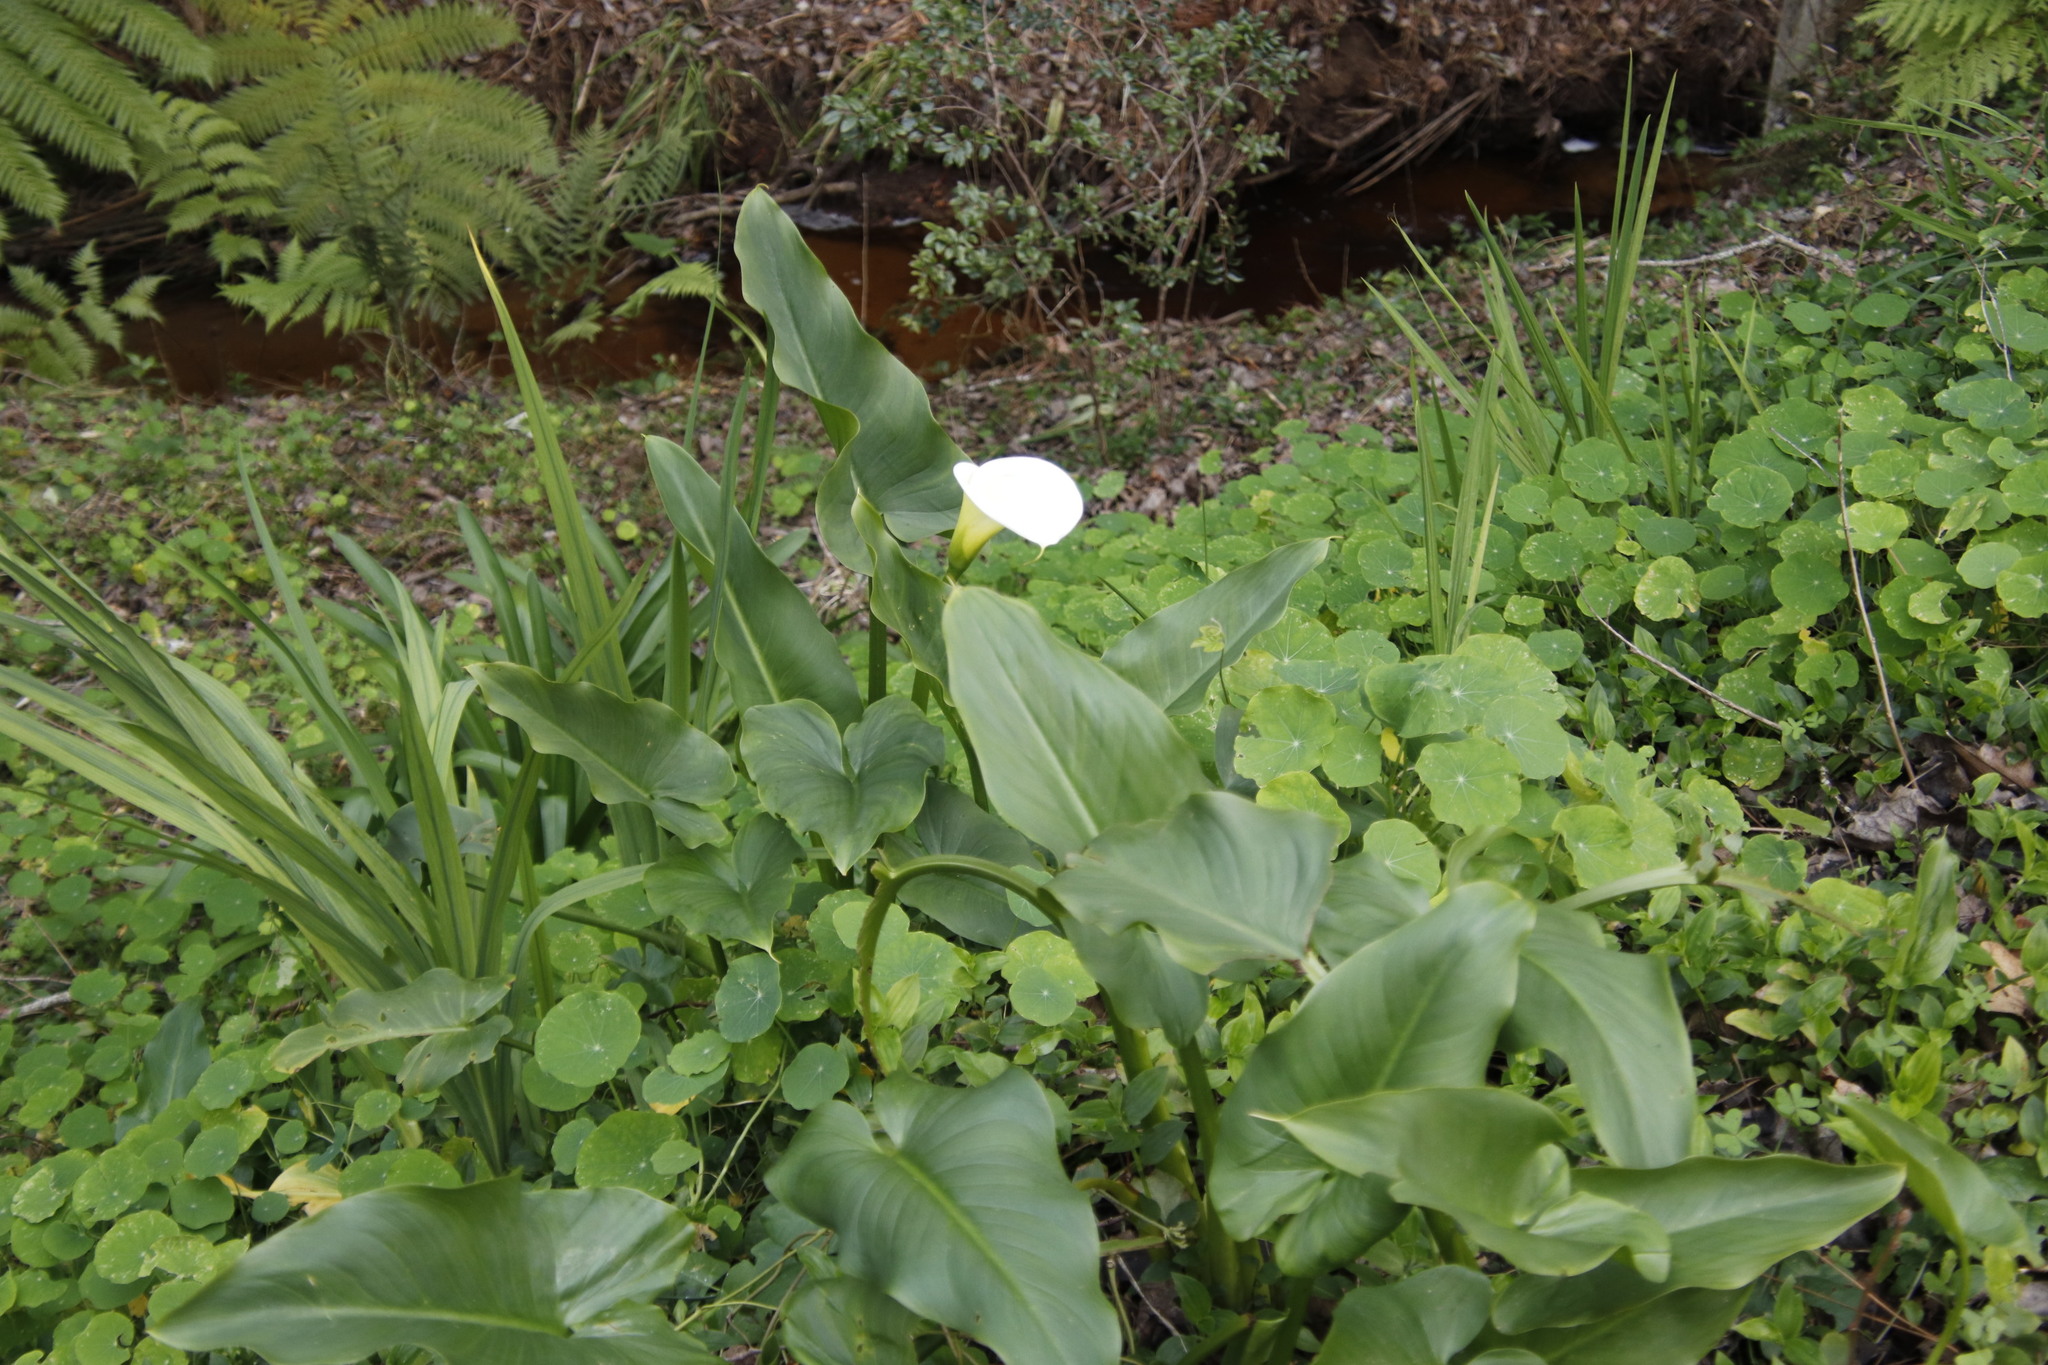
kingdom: Plantae
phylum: Tracheophyta
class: Liliopsida
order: Alismatales
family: Araceae
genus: Zantedeschia
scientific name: Zantedeschia aethiopica
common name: Altar-lily
